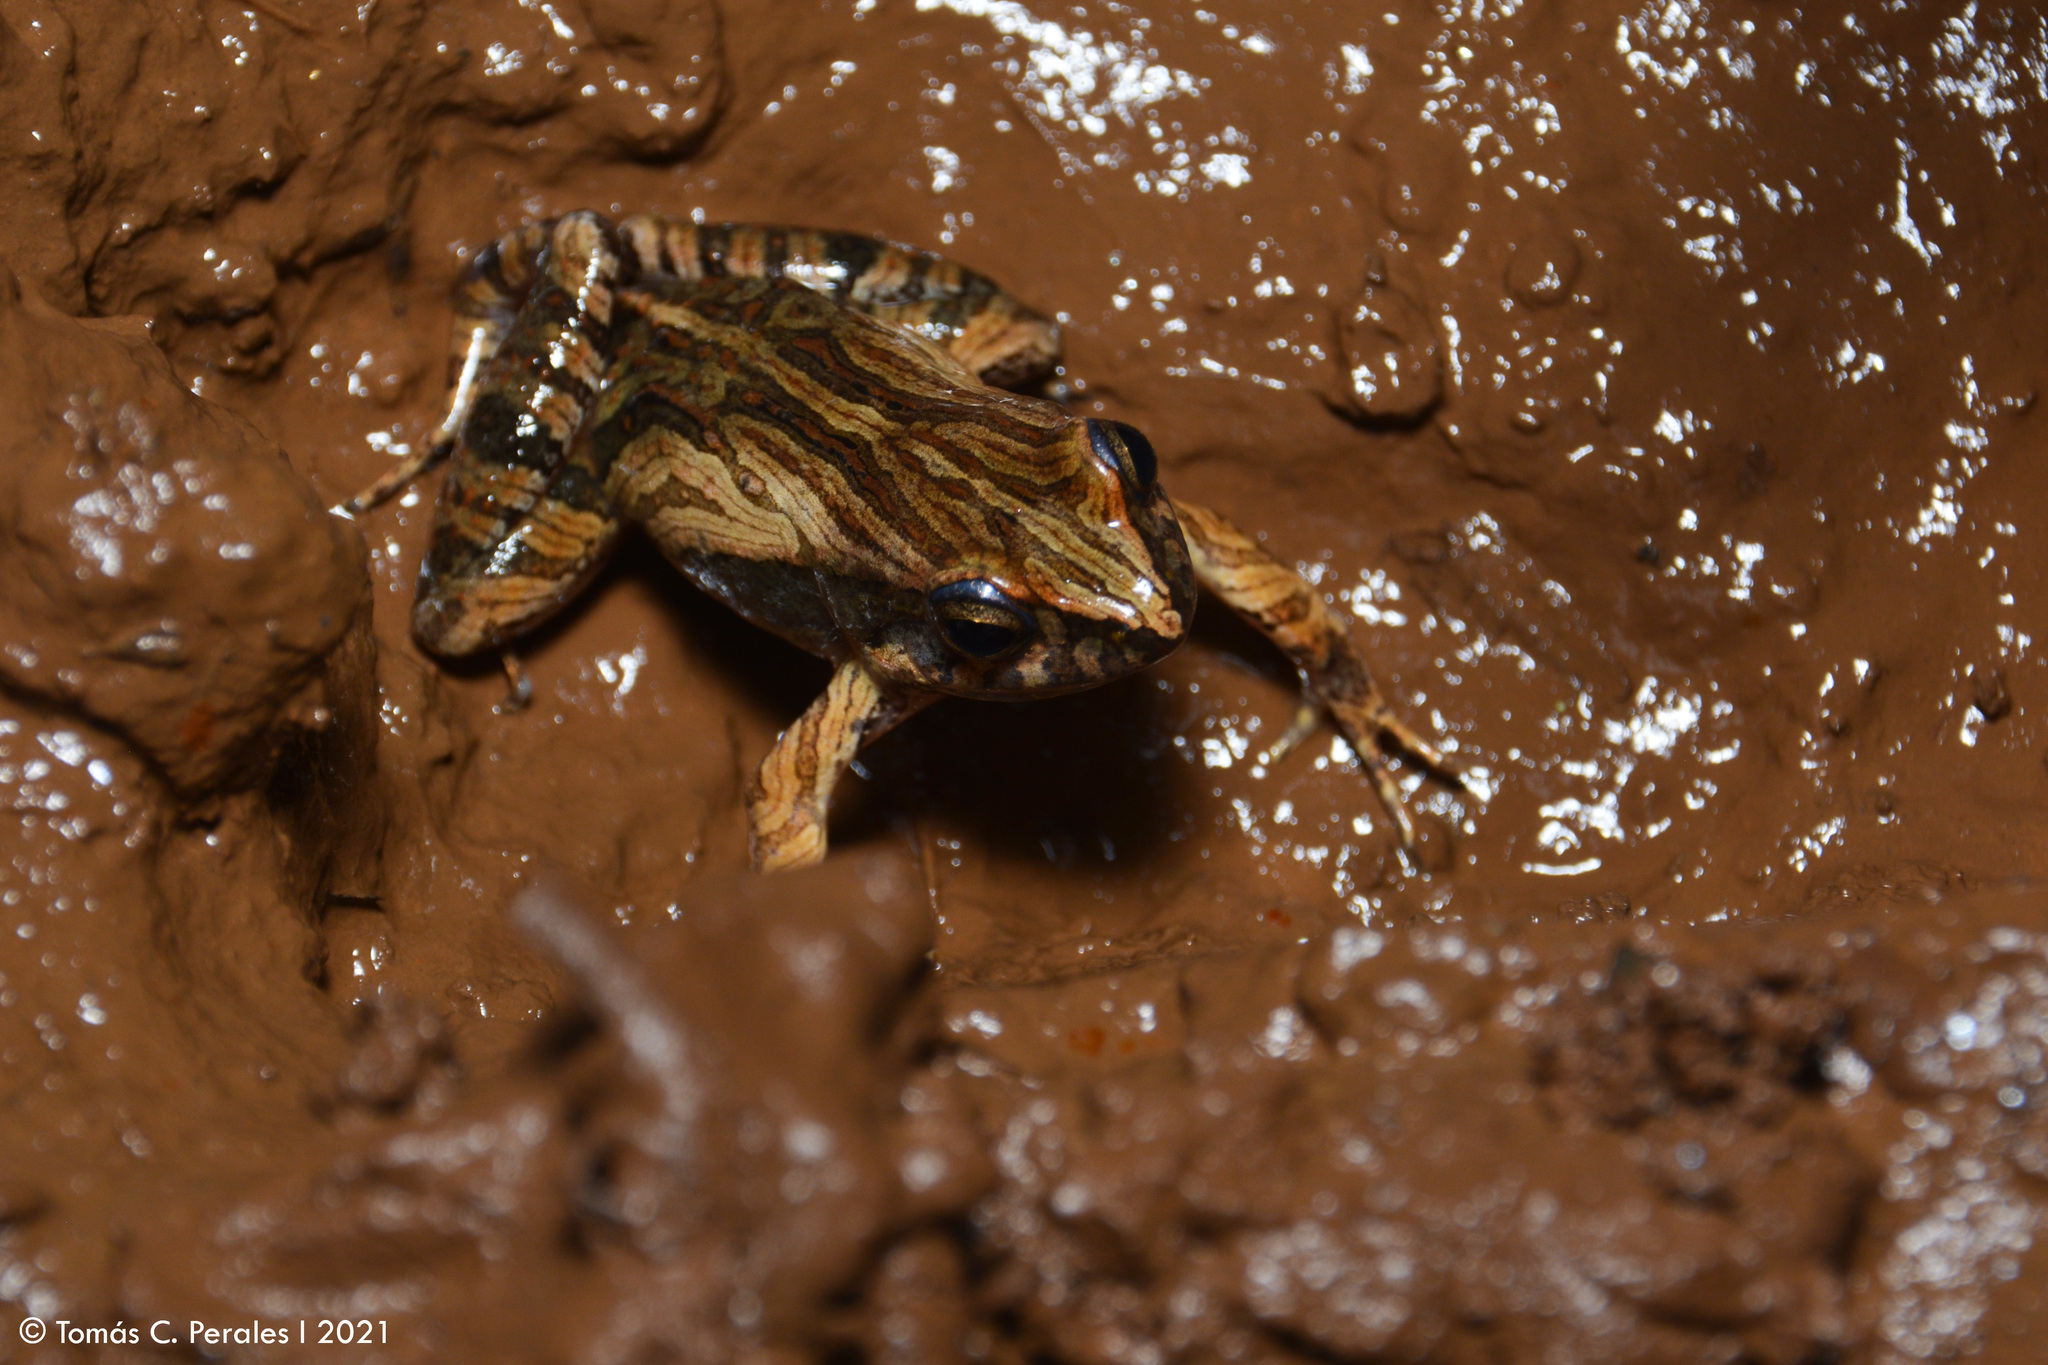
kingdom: Animalia
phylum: Chordata
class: Amphibia
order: Anura
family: Leptodactylidae
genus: Physalaemus
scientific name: Physalaemus cuvieri
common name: Barker frog
